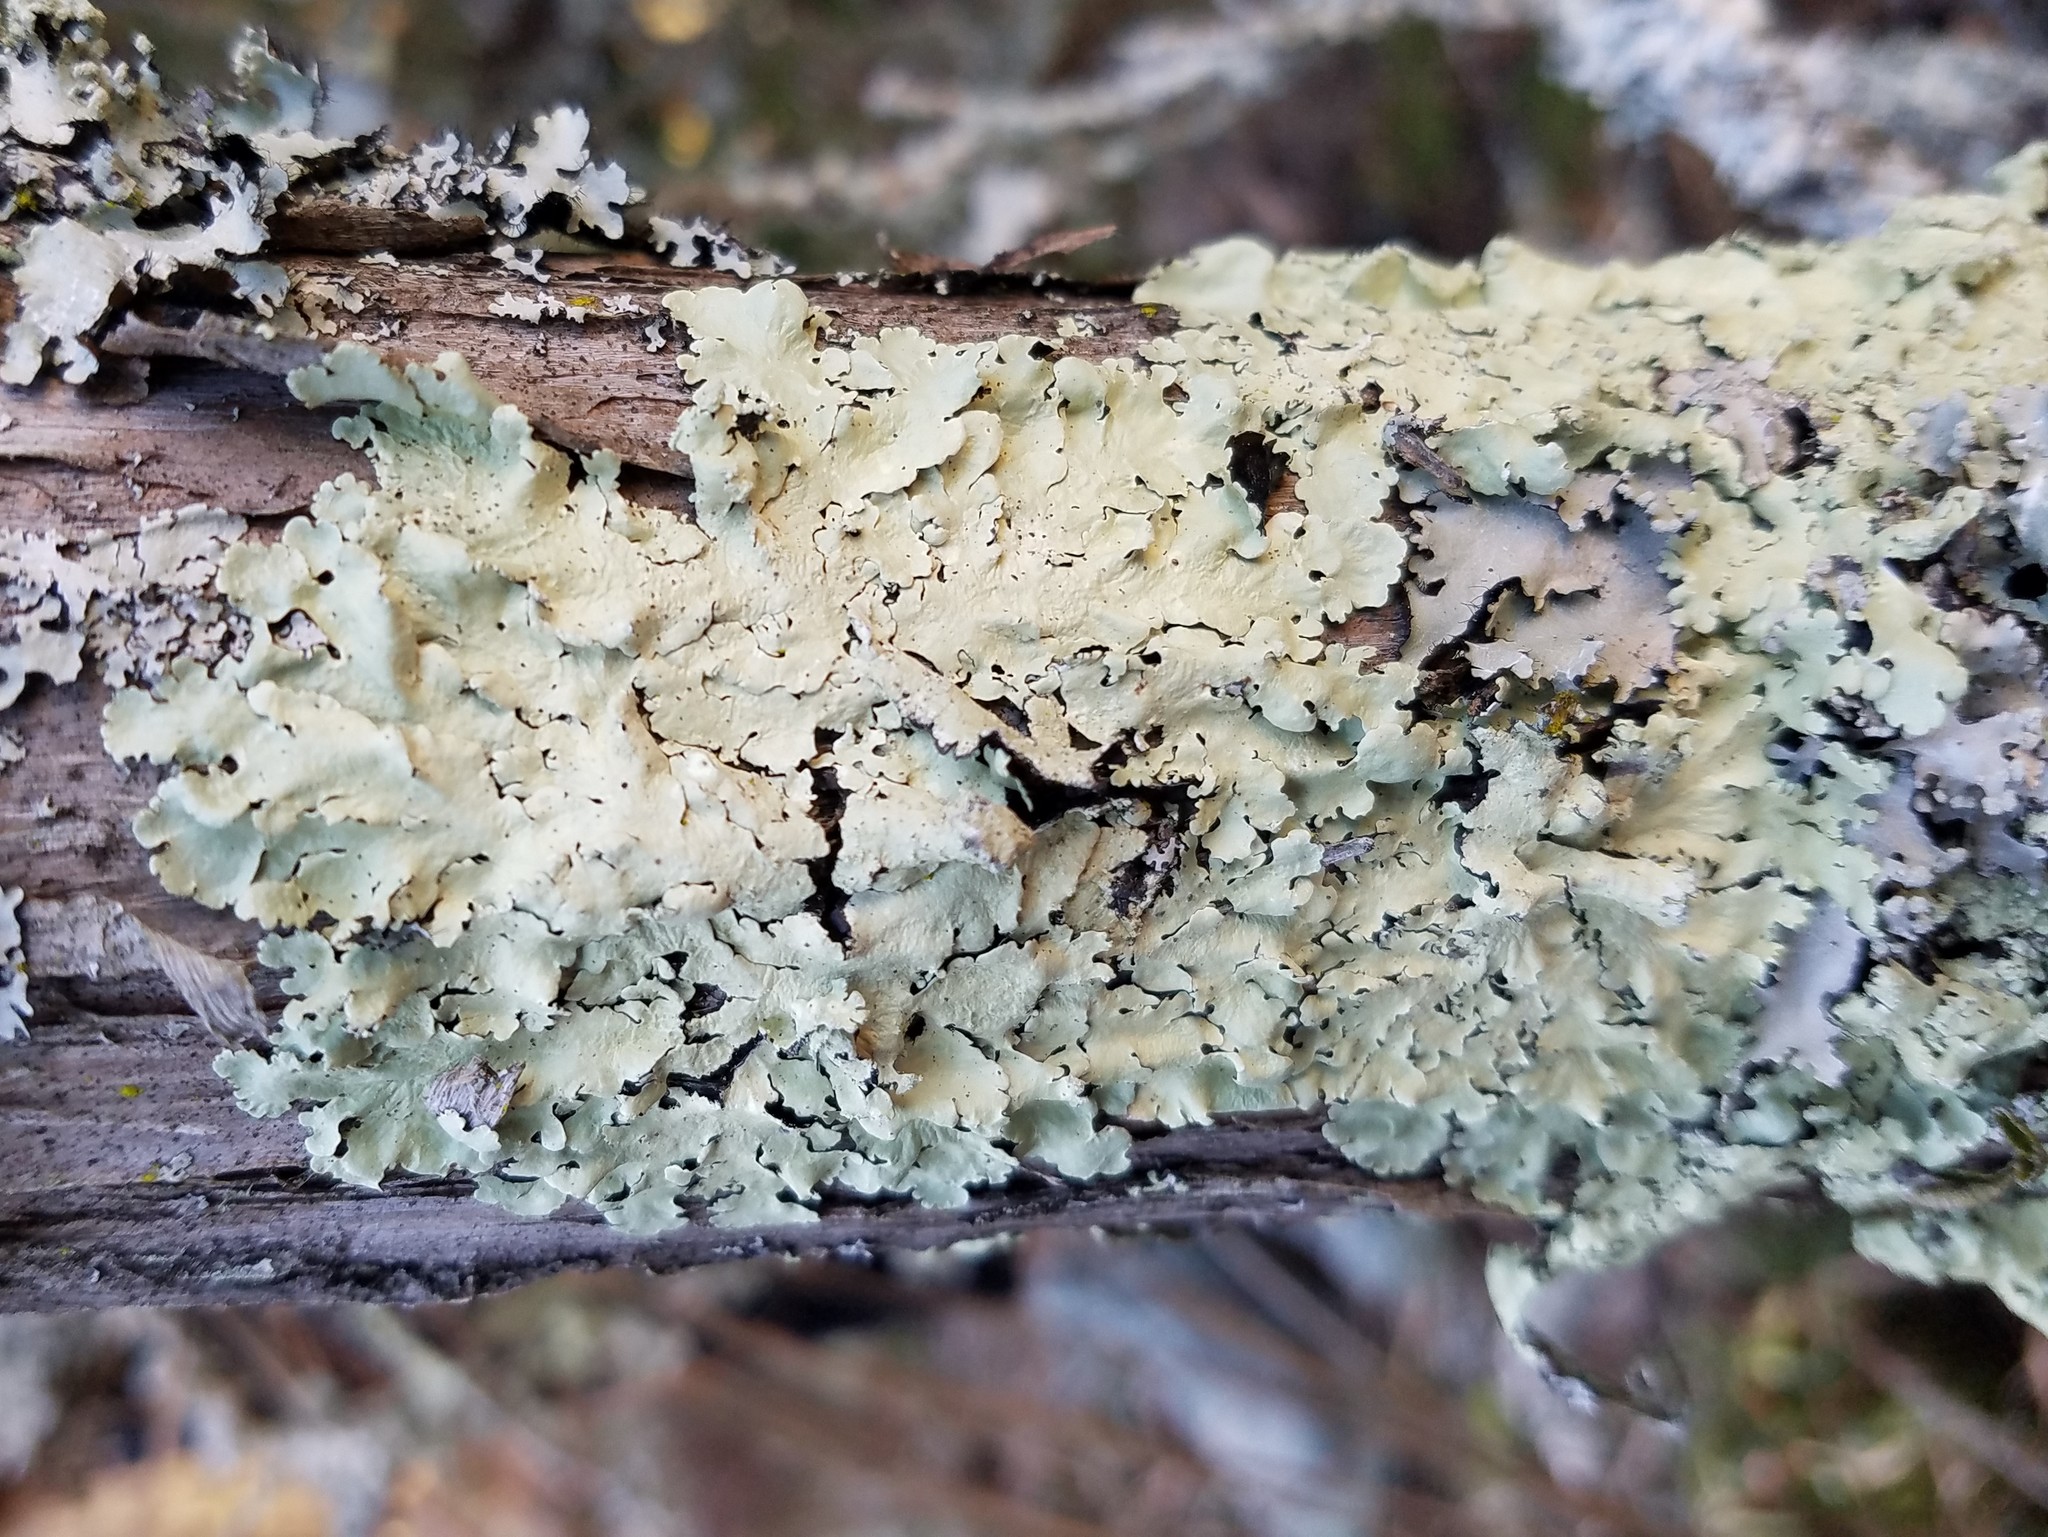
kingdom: Fungi
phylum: Ascomycota
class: Lecanoromycetes
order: Lecanorales
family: Parmeliaceae
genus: Flavoparmelia
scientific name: Flavoparmelia caperata
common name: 40-mile per hour lichen
